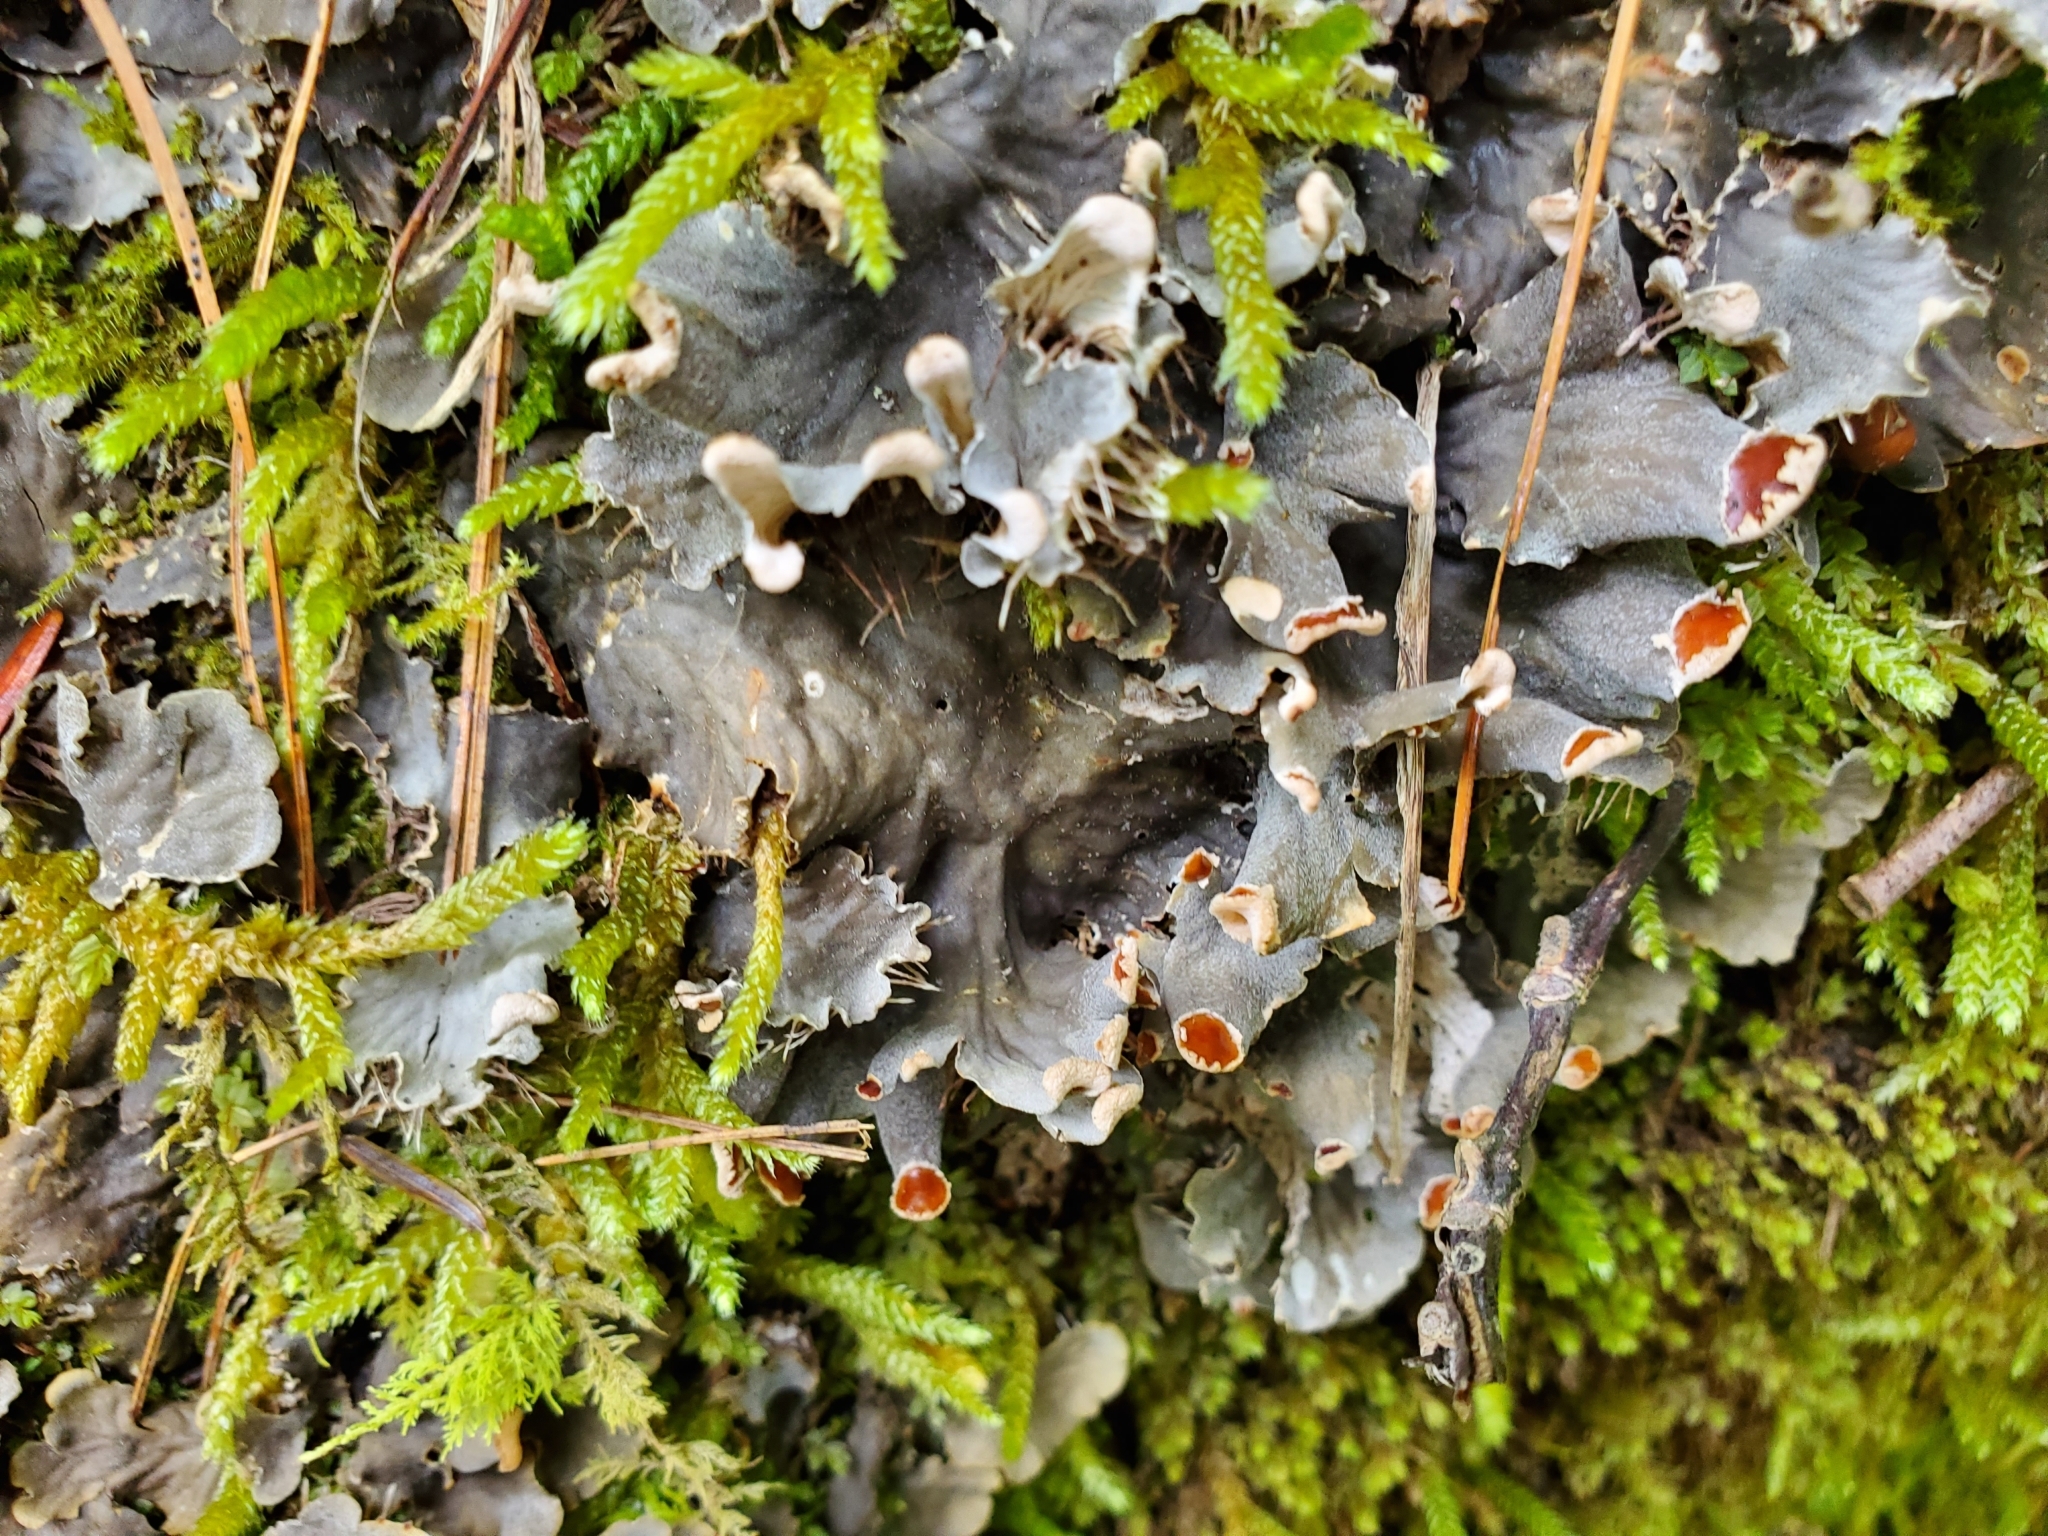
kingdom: Fungi
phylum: Ascomycota
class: Lecanoromycetes
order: Peltigerales
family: Peltigeraceae
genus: Peltigera
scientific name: Peltigera canina
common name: Dog pelt lichen
